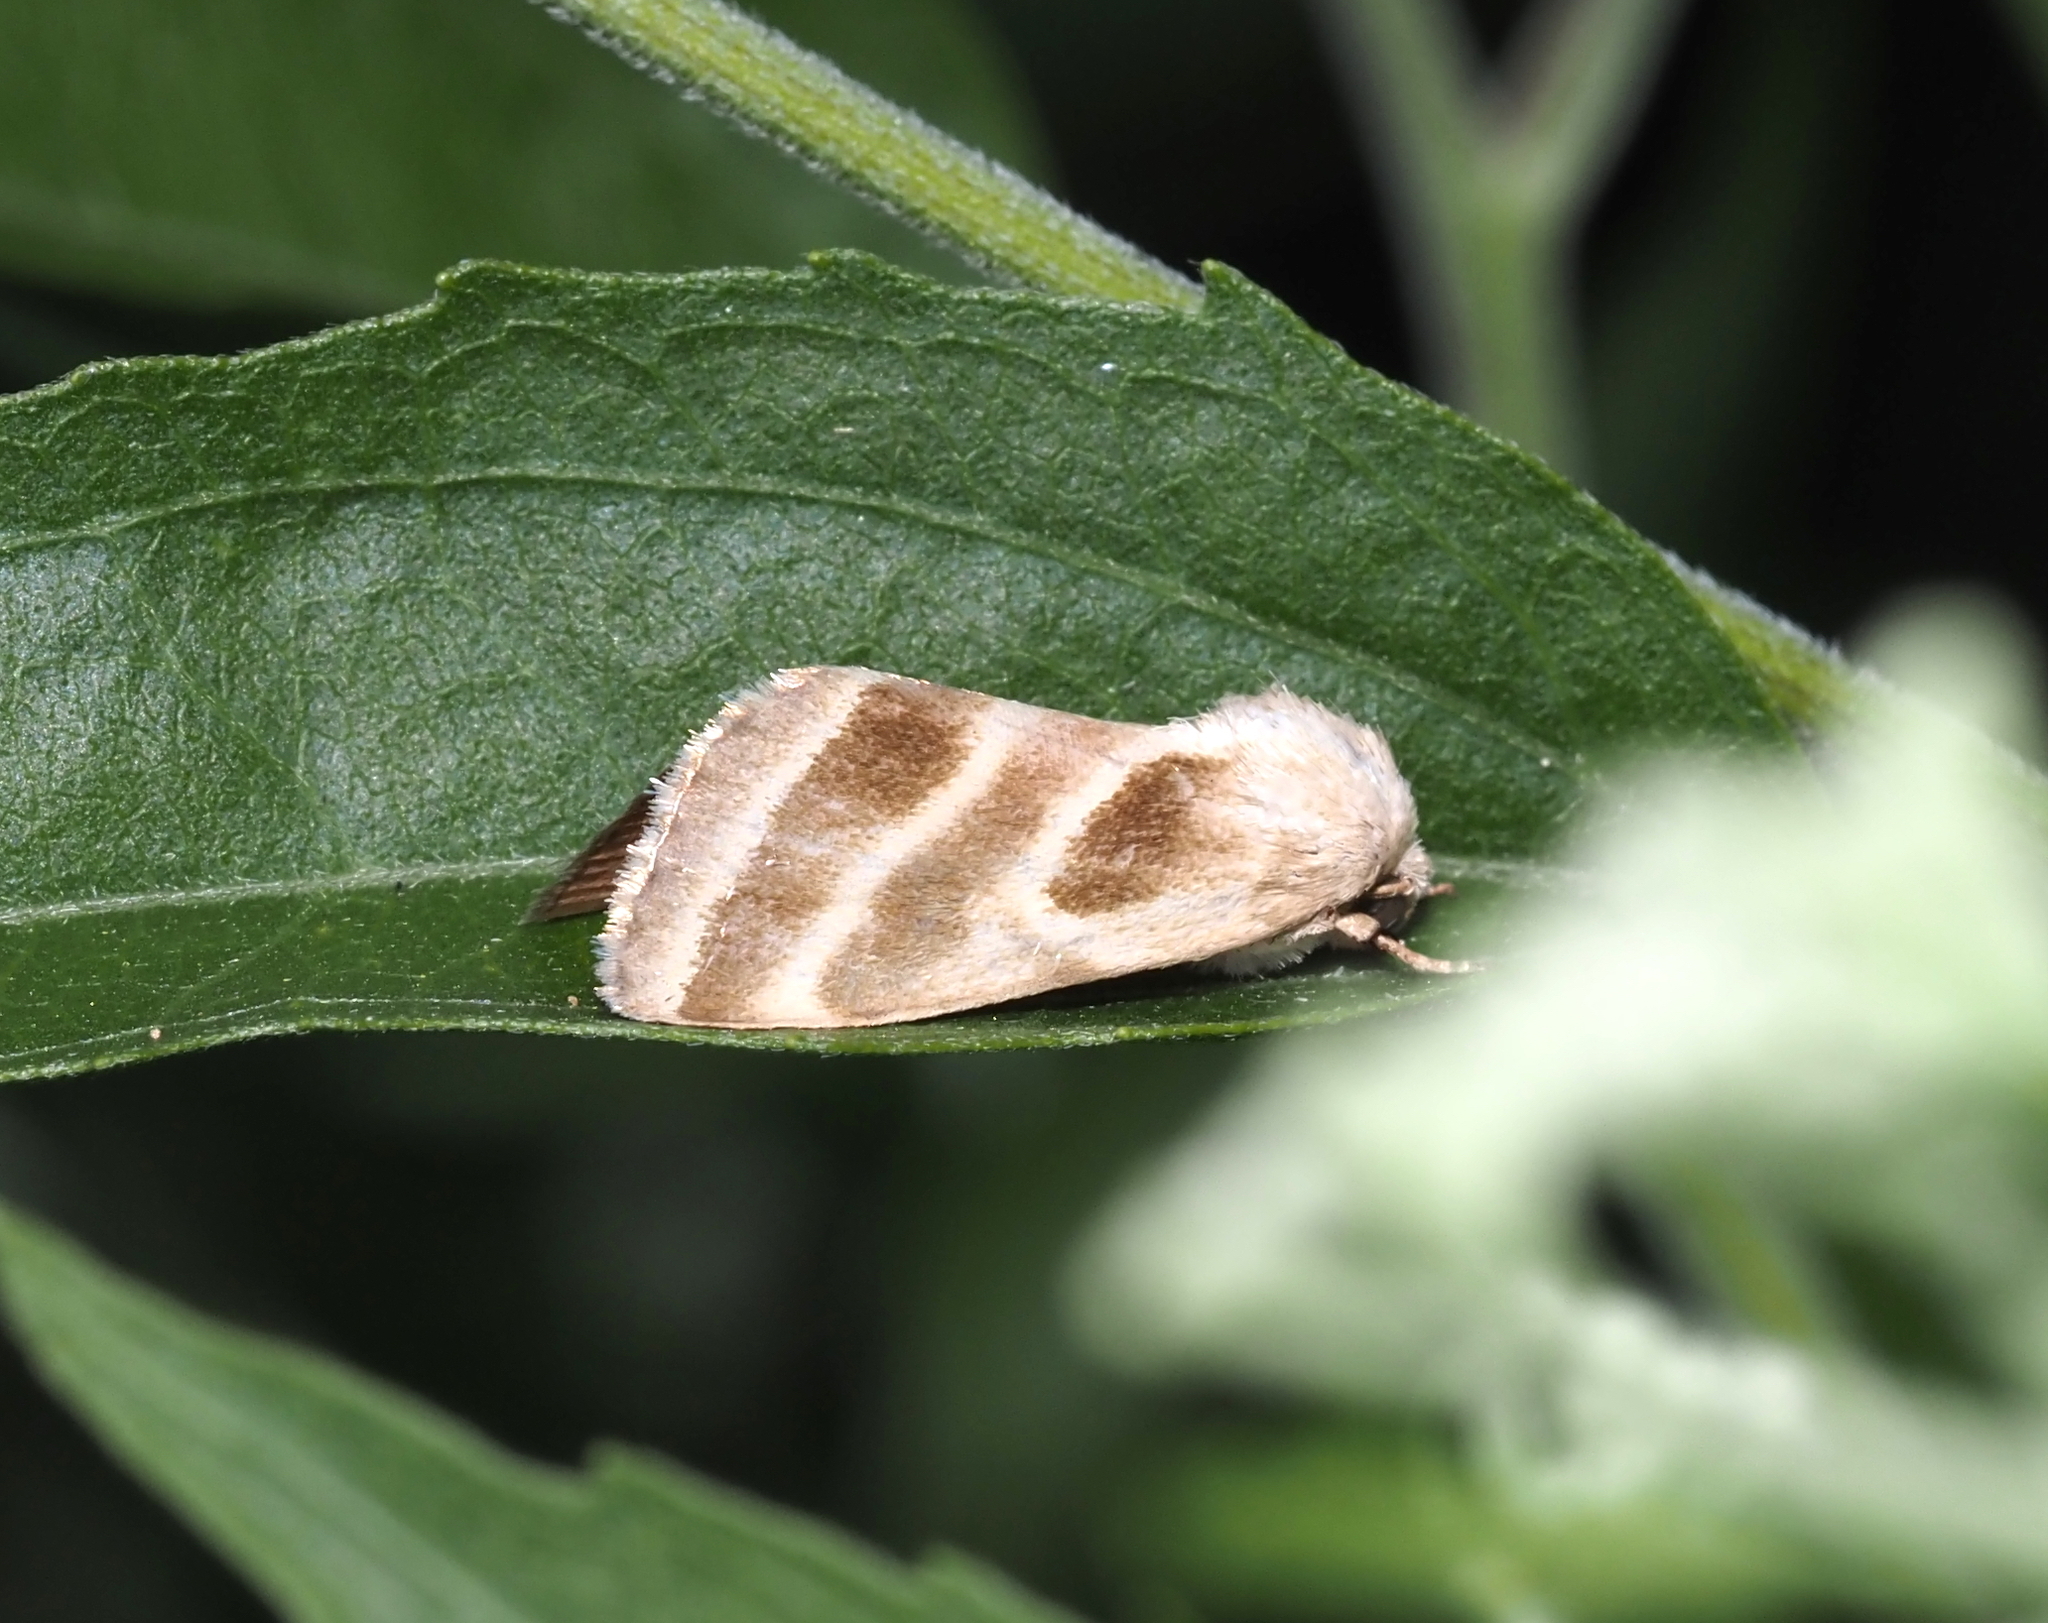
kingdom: Animalia
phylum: Arthropoda
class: Insecta
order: Lepidoptera
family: Noctuidae
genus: Schinia
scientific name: Schinia trifascia
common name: Three-lined flower moth
